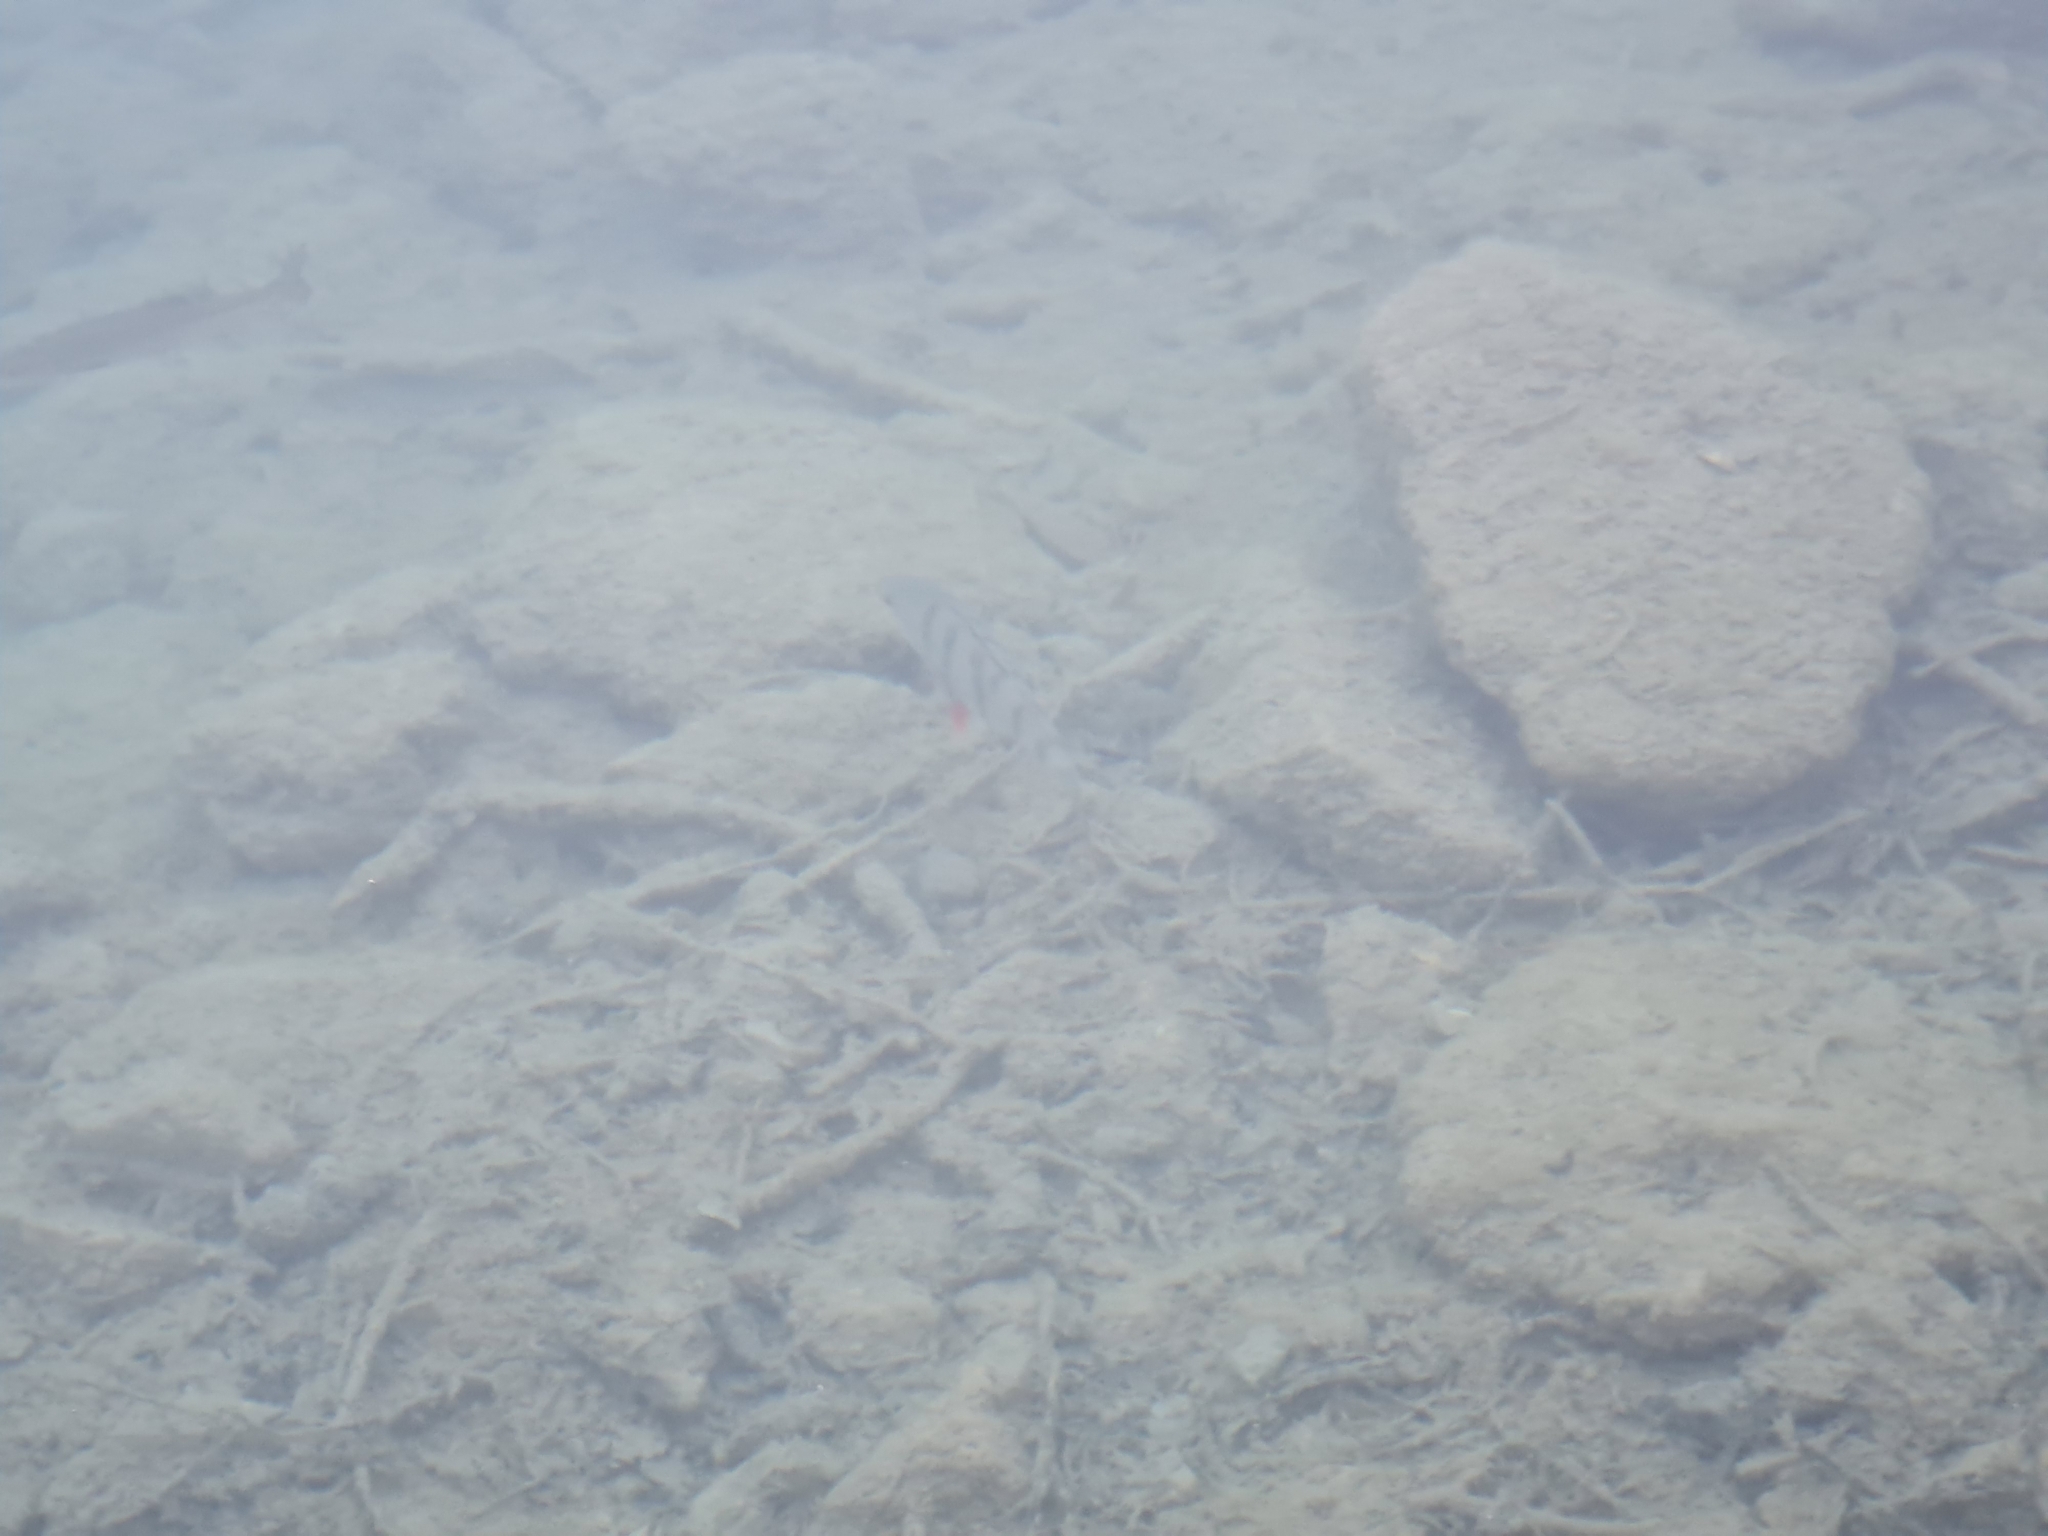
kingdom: Animalia
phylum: Chordata
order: Perciformes
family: Percidae
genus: Perca
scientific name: Perca fluviatilis
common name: Perch
